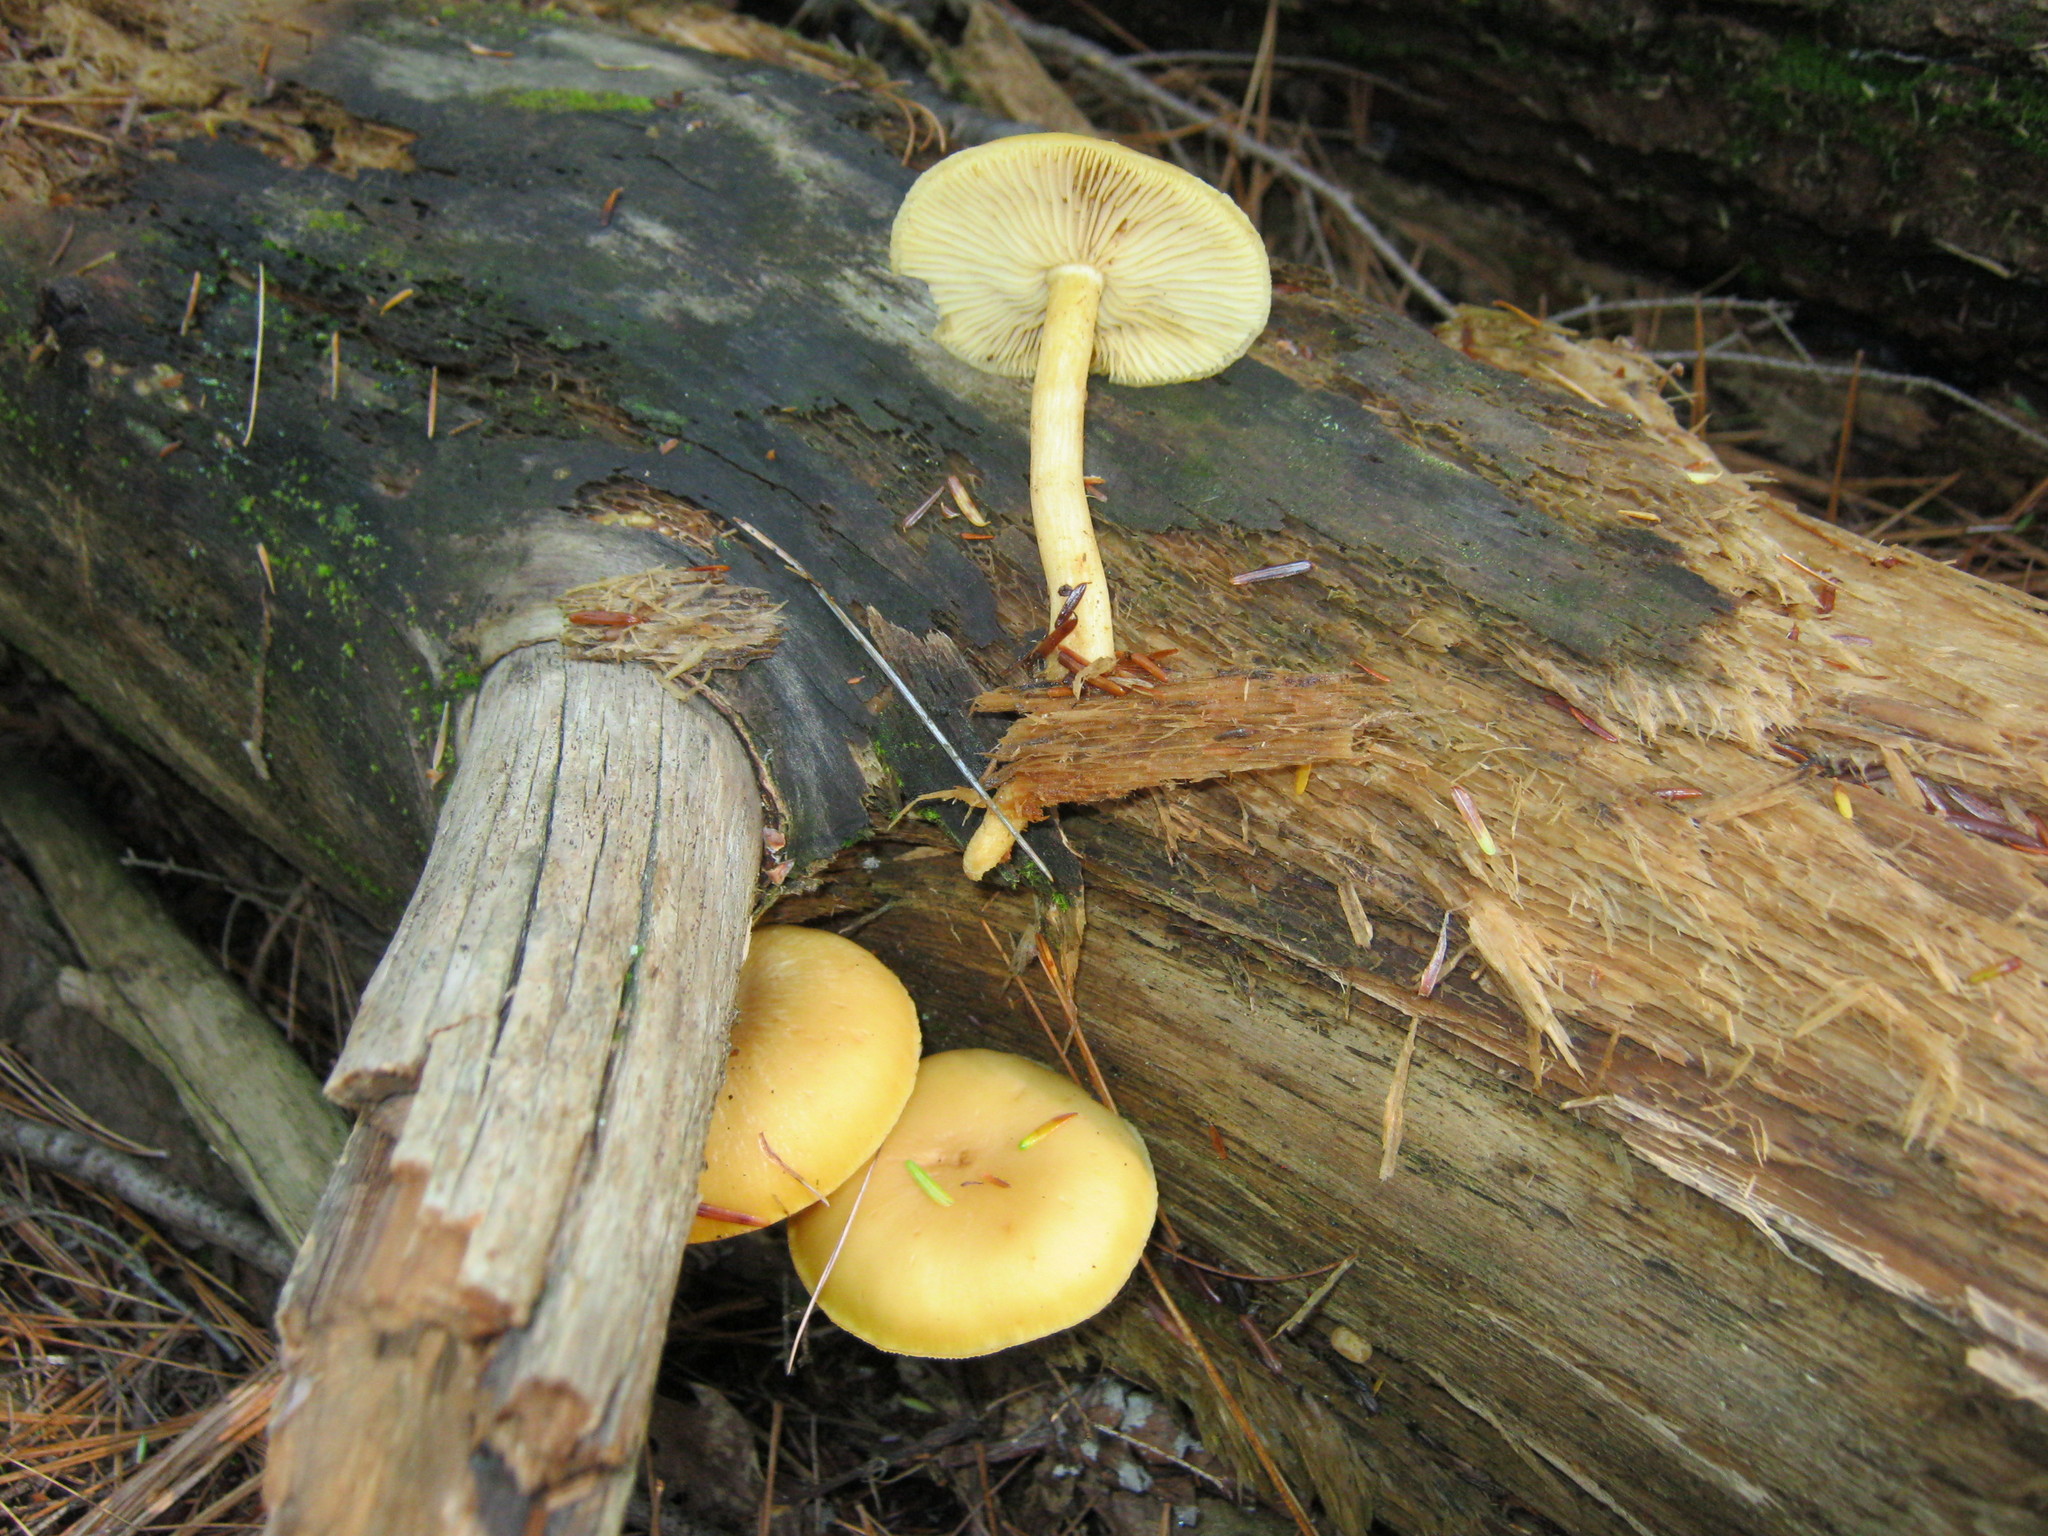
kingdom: Fungi
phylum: Basidiomycota
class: Agaricomycetes
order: Agaricales
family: Tricholomataceae
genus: Tricholomopsis
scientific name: Tricholomopsis sulfureoides
